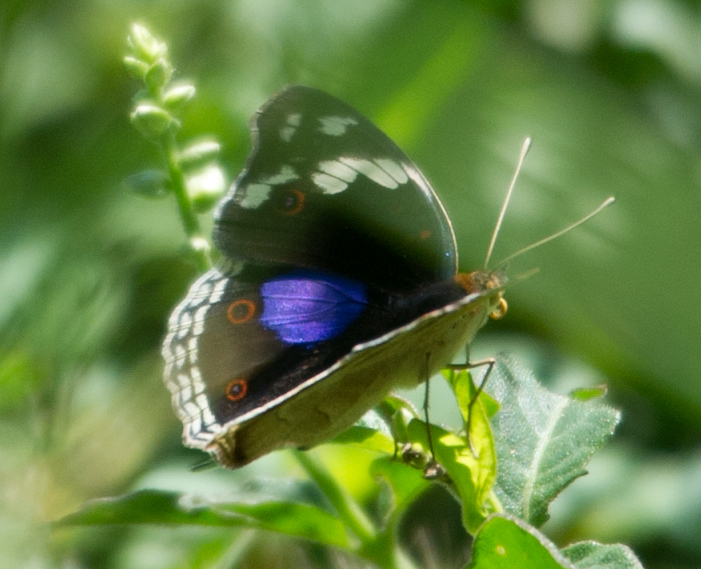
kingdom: Animalia
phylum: Arthropoda
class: Insecta
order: Lepidoptera
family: Nymphalidae
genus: Junonia
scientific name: Junonia oenone
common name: Dark blue pansy
